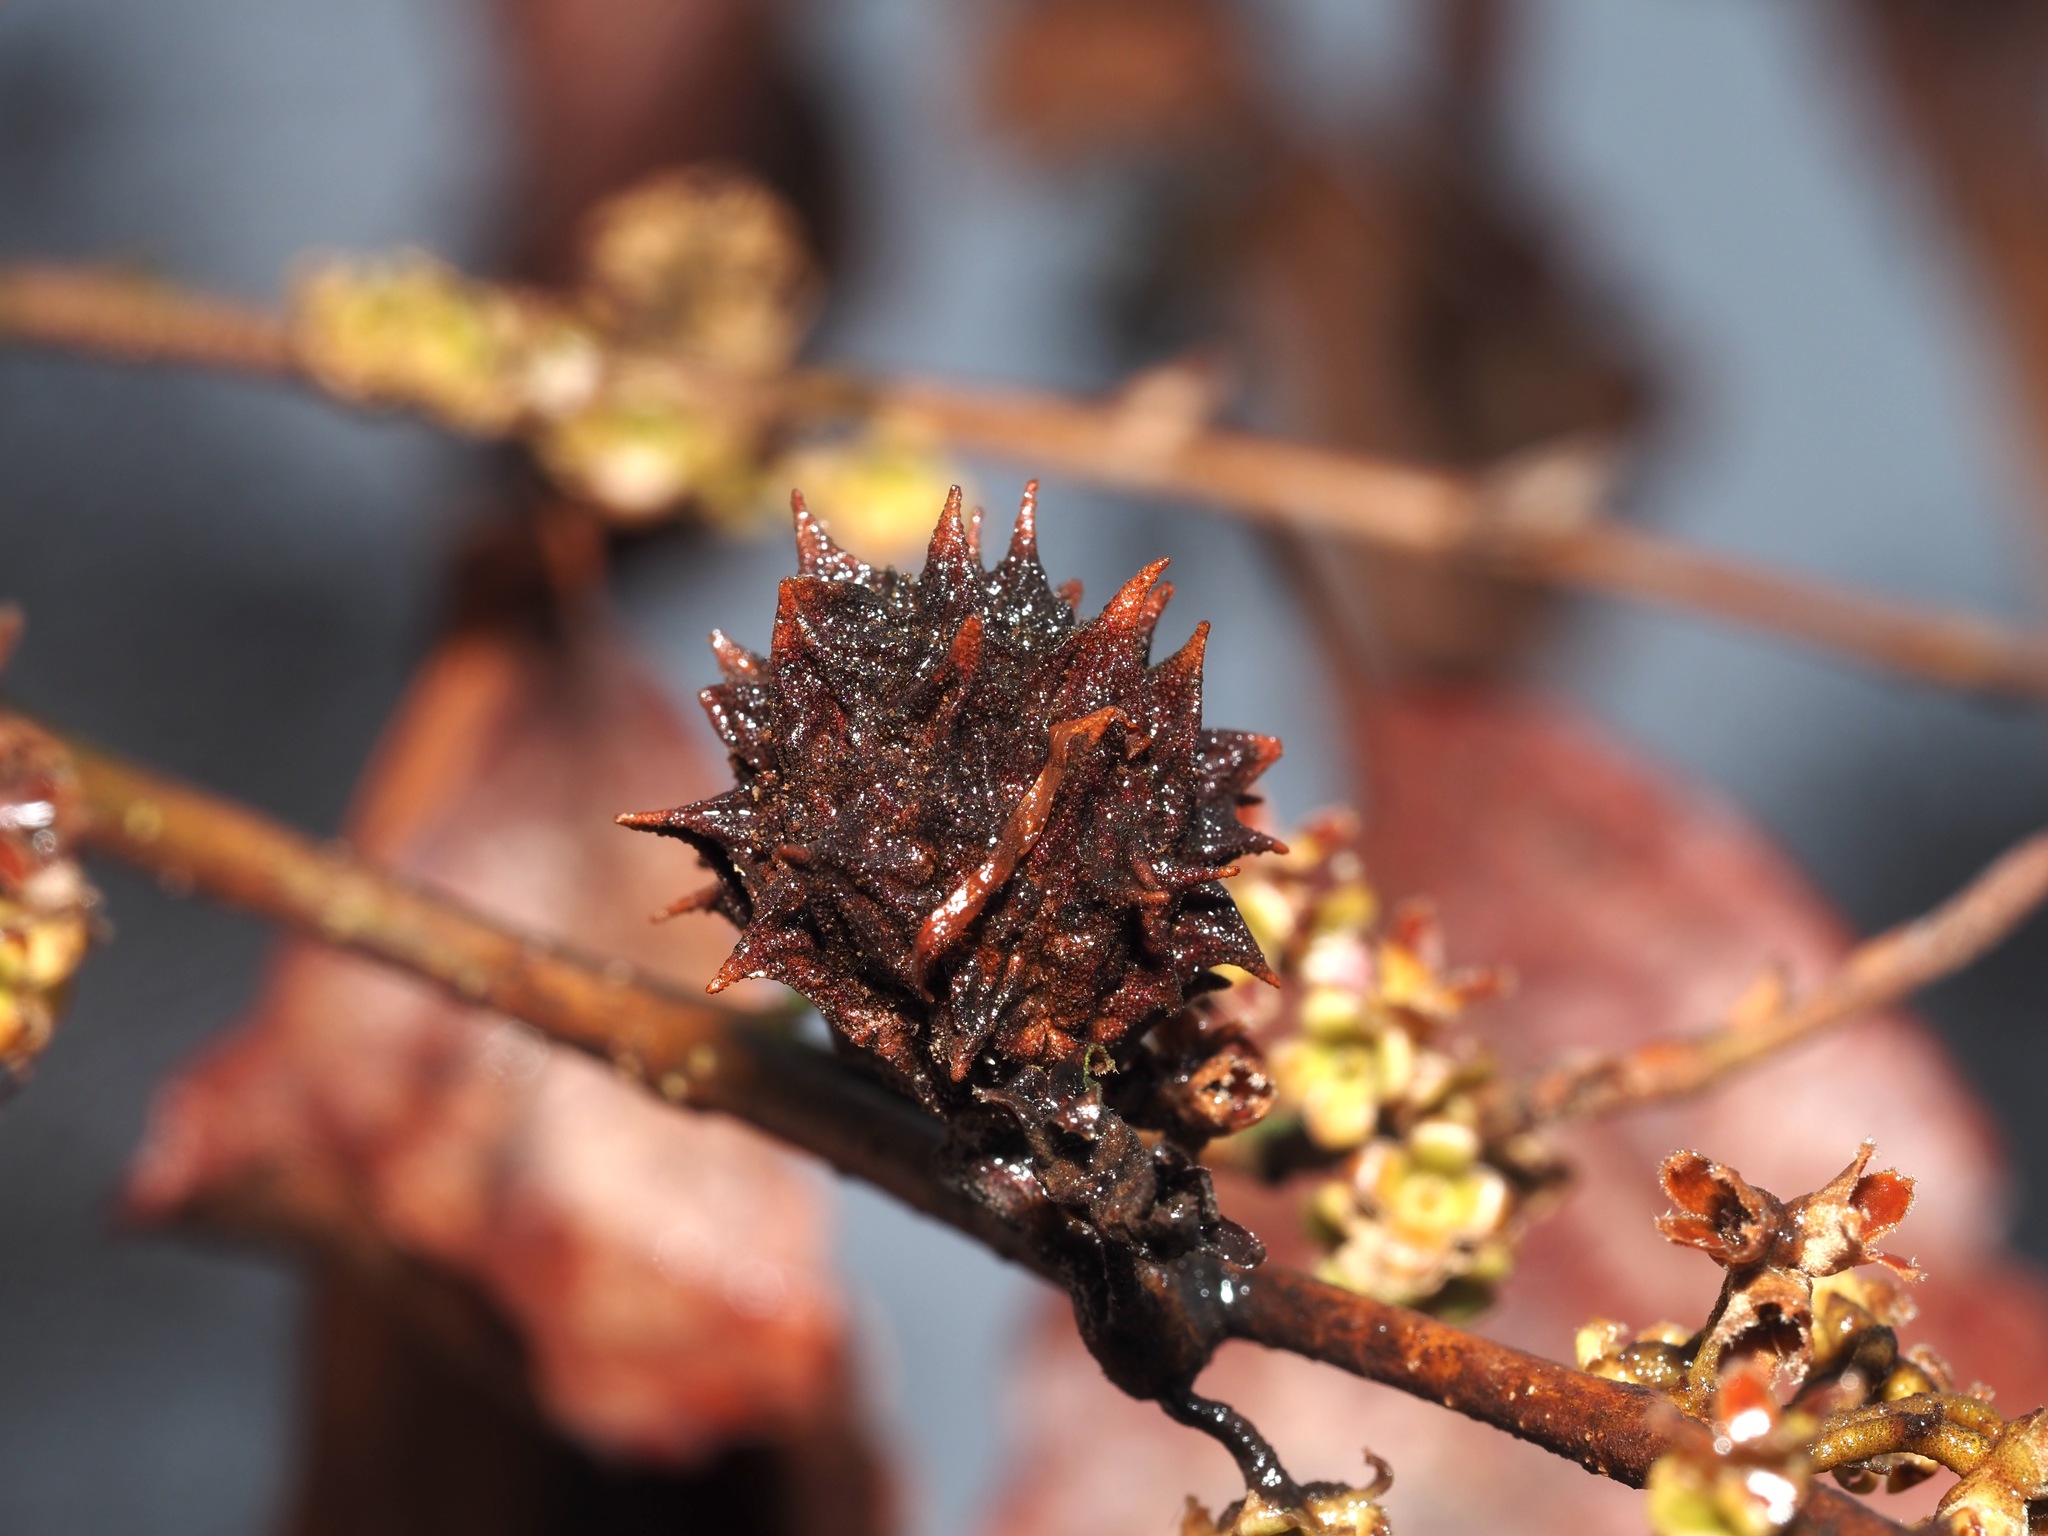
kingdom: Animalia
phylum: Arthropoda
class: Insecta
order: Hemiptera
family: Aphididae
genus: Hamamelistes
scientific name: Hamamelistes spinosus
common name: Witch hazel gall aphid
